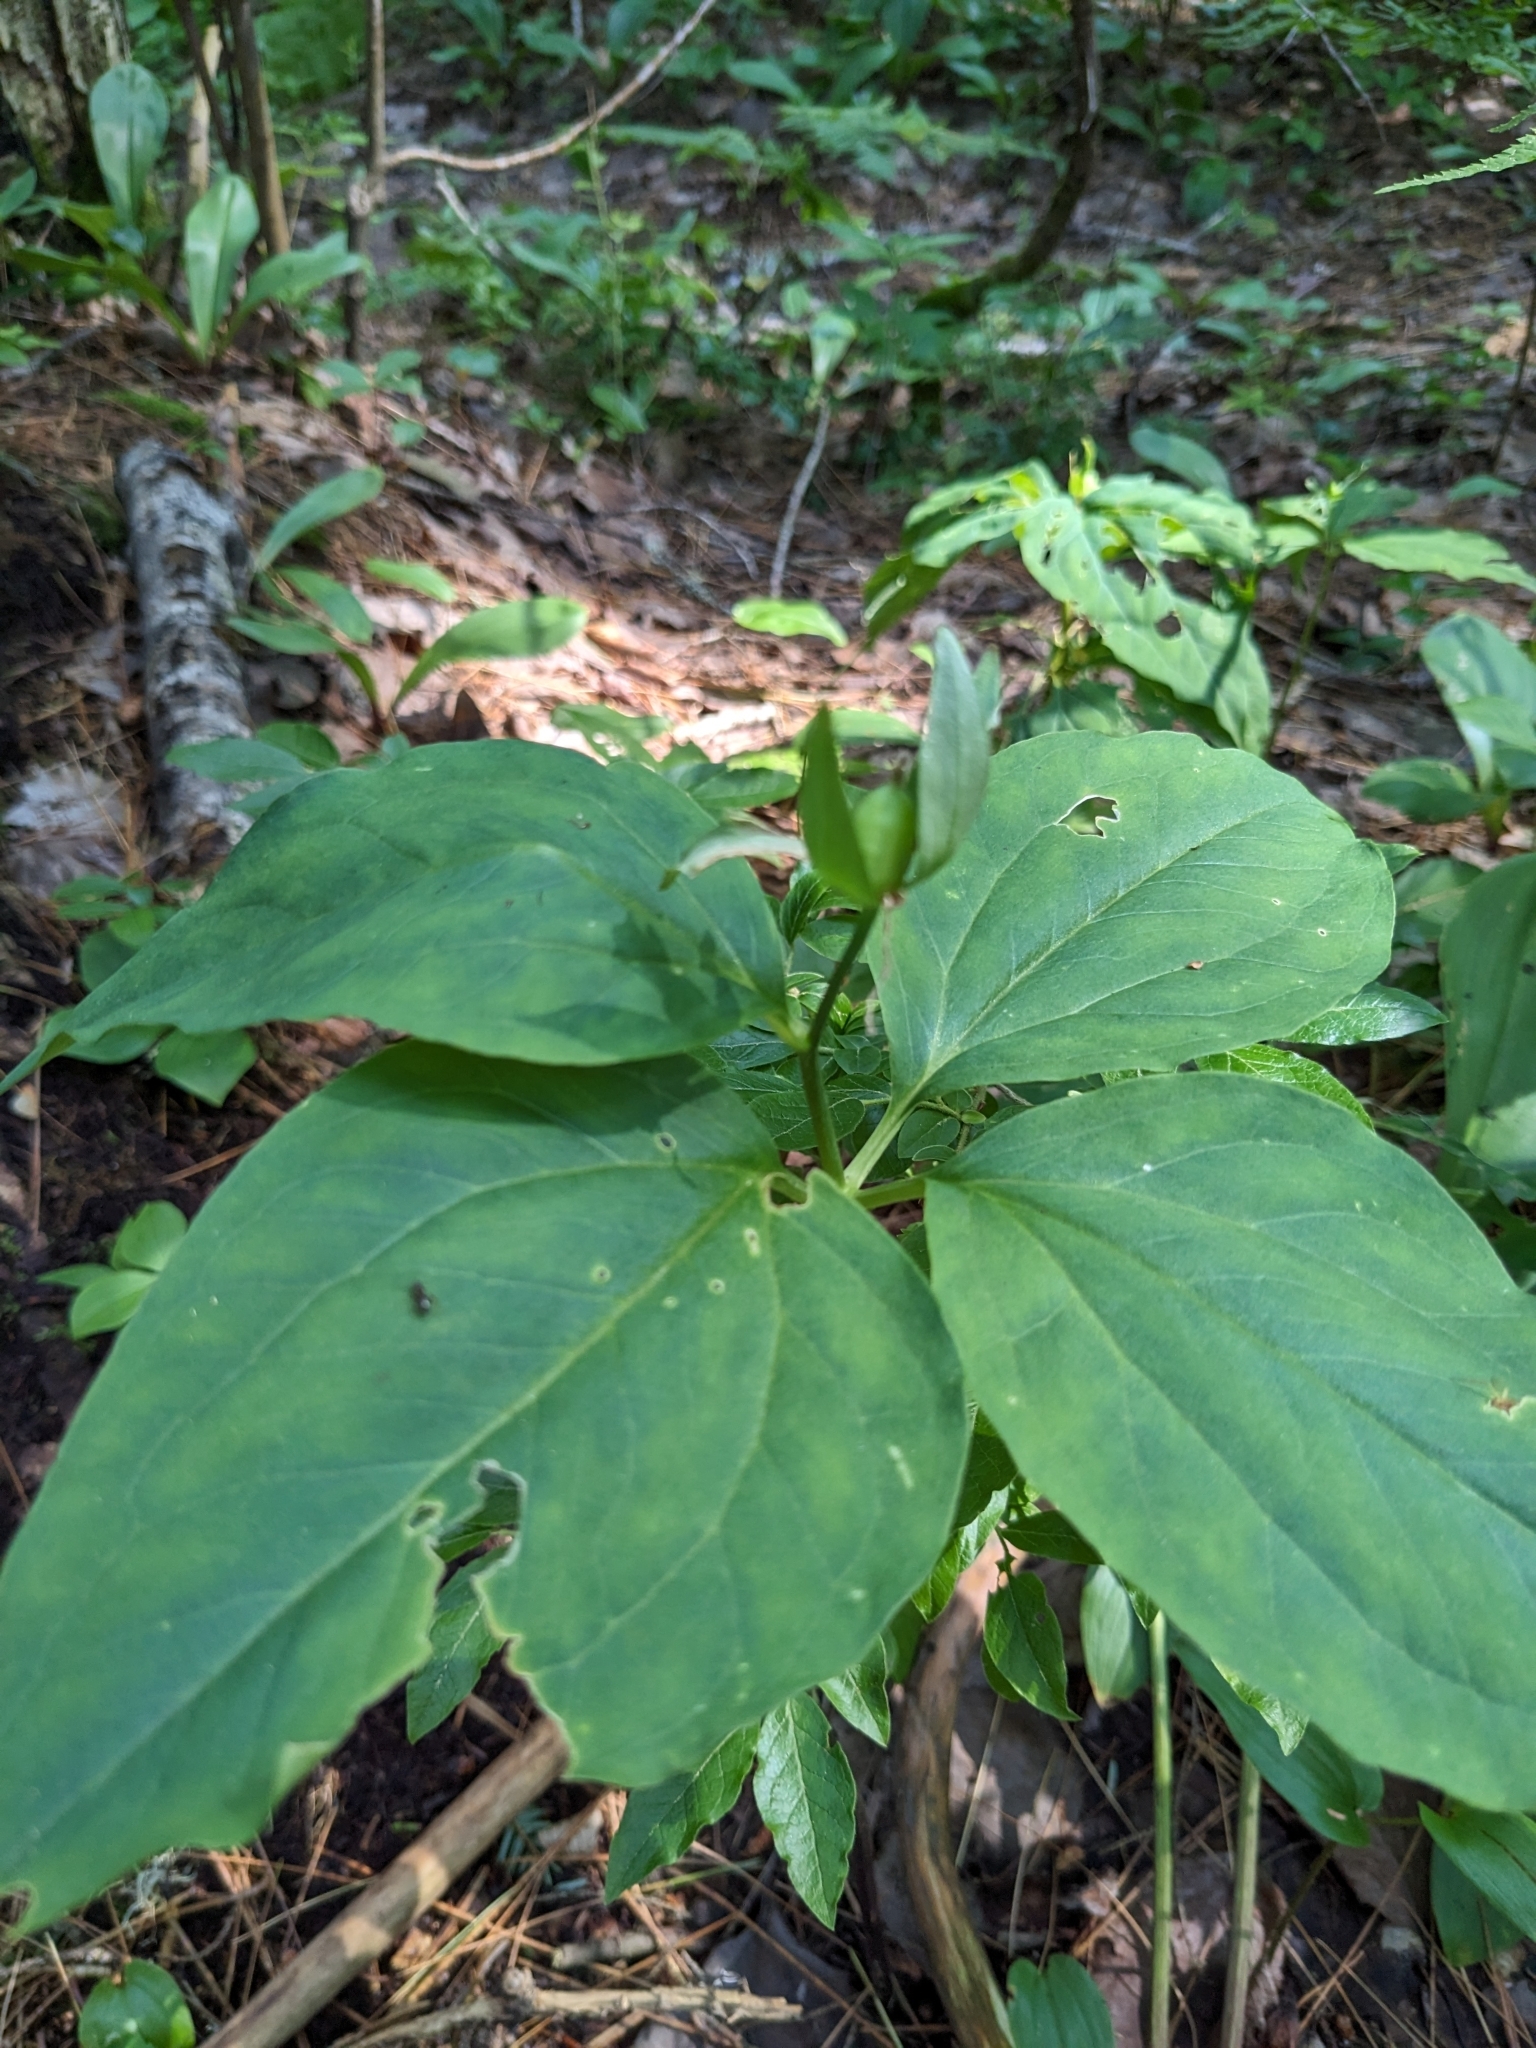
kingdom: Plantae
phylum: Tracheophyta
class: Liliopsida
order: Liliales
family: Melanthiaceae
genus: Trillium
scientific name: Trillium undulatum
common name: Paint trillium
